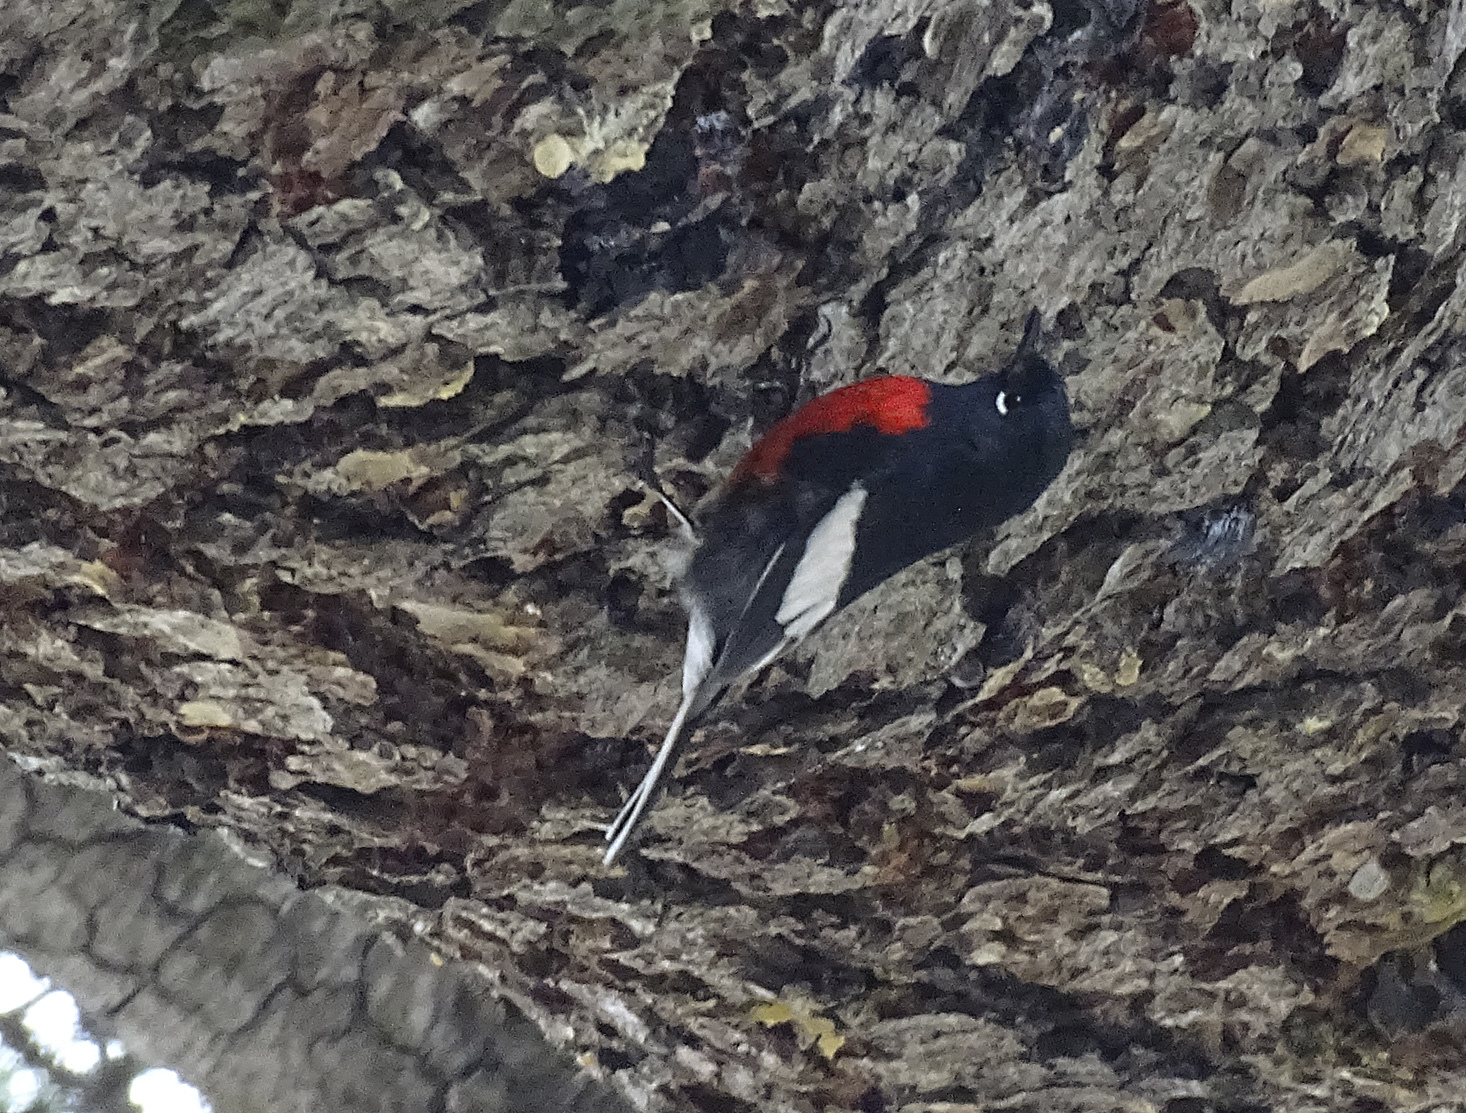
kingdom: Animalia
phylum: Chordata
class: Aves
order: Passeriformes
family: Parulidae
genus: Myioborus
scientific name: Myioborus pictus
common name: Painted whitestart
